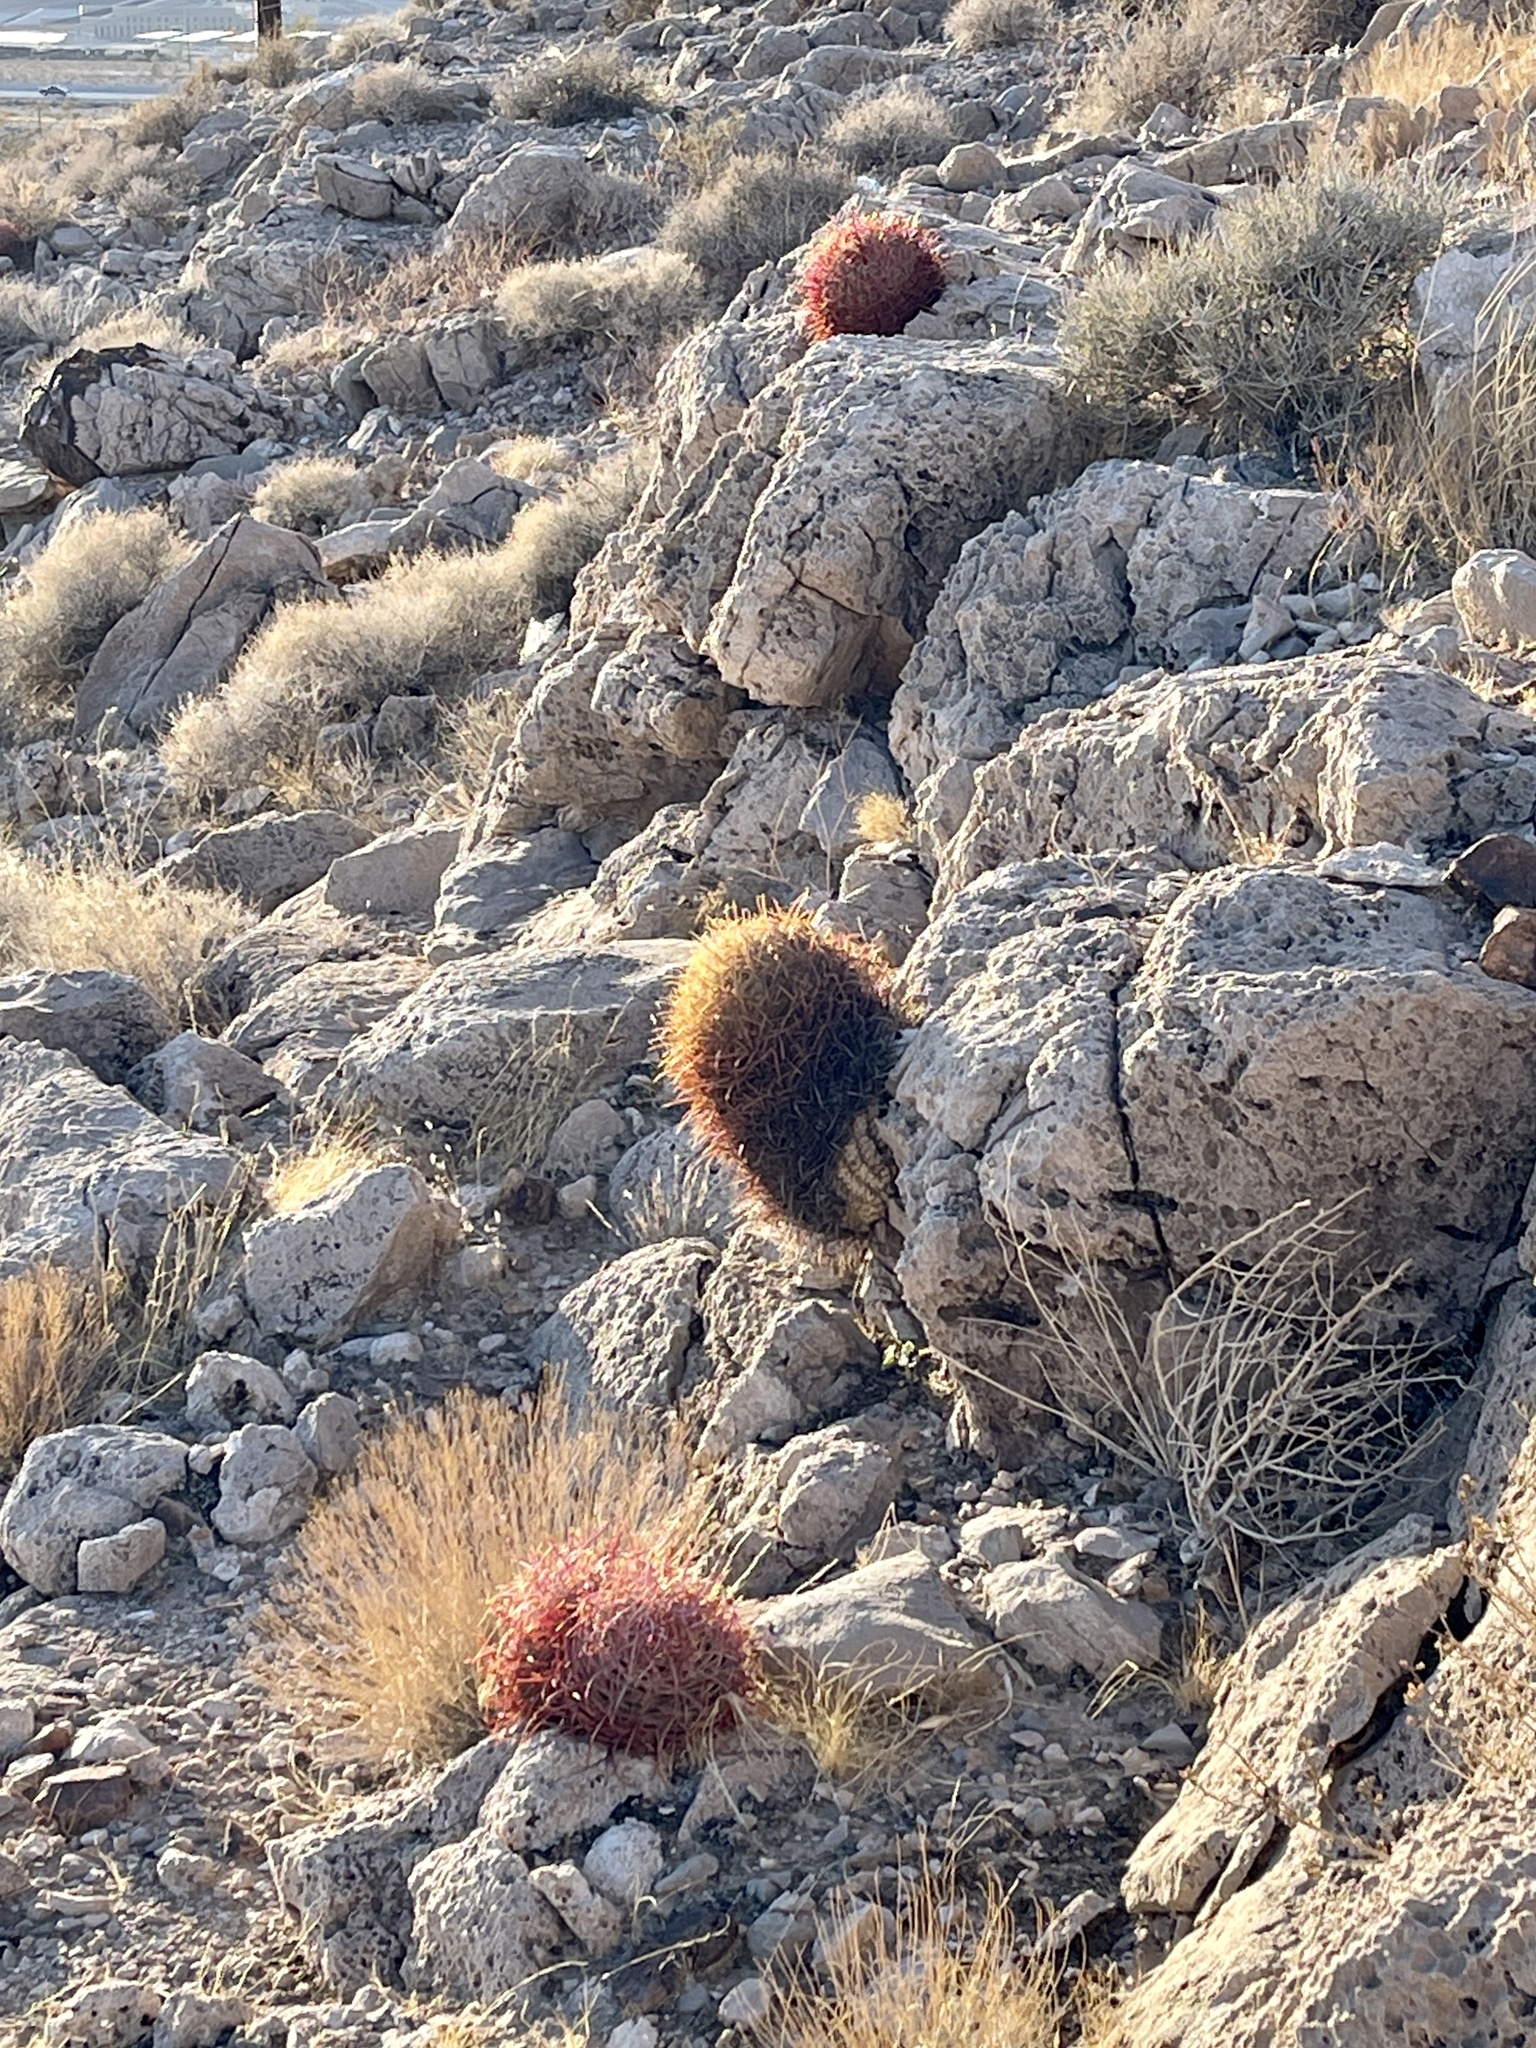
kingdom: Plantae
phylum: Tracheophyta
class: Magnoliopsida
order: Caryophyllales
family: Cactaceae
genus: Ferocactus
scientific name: Ferocactus cylindraceus
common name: California barrel cactus
